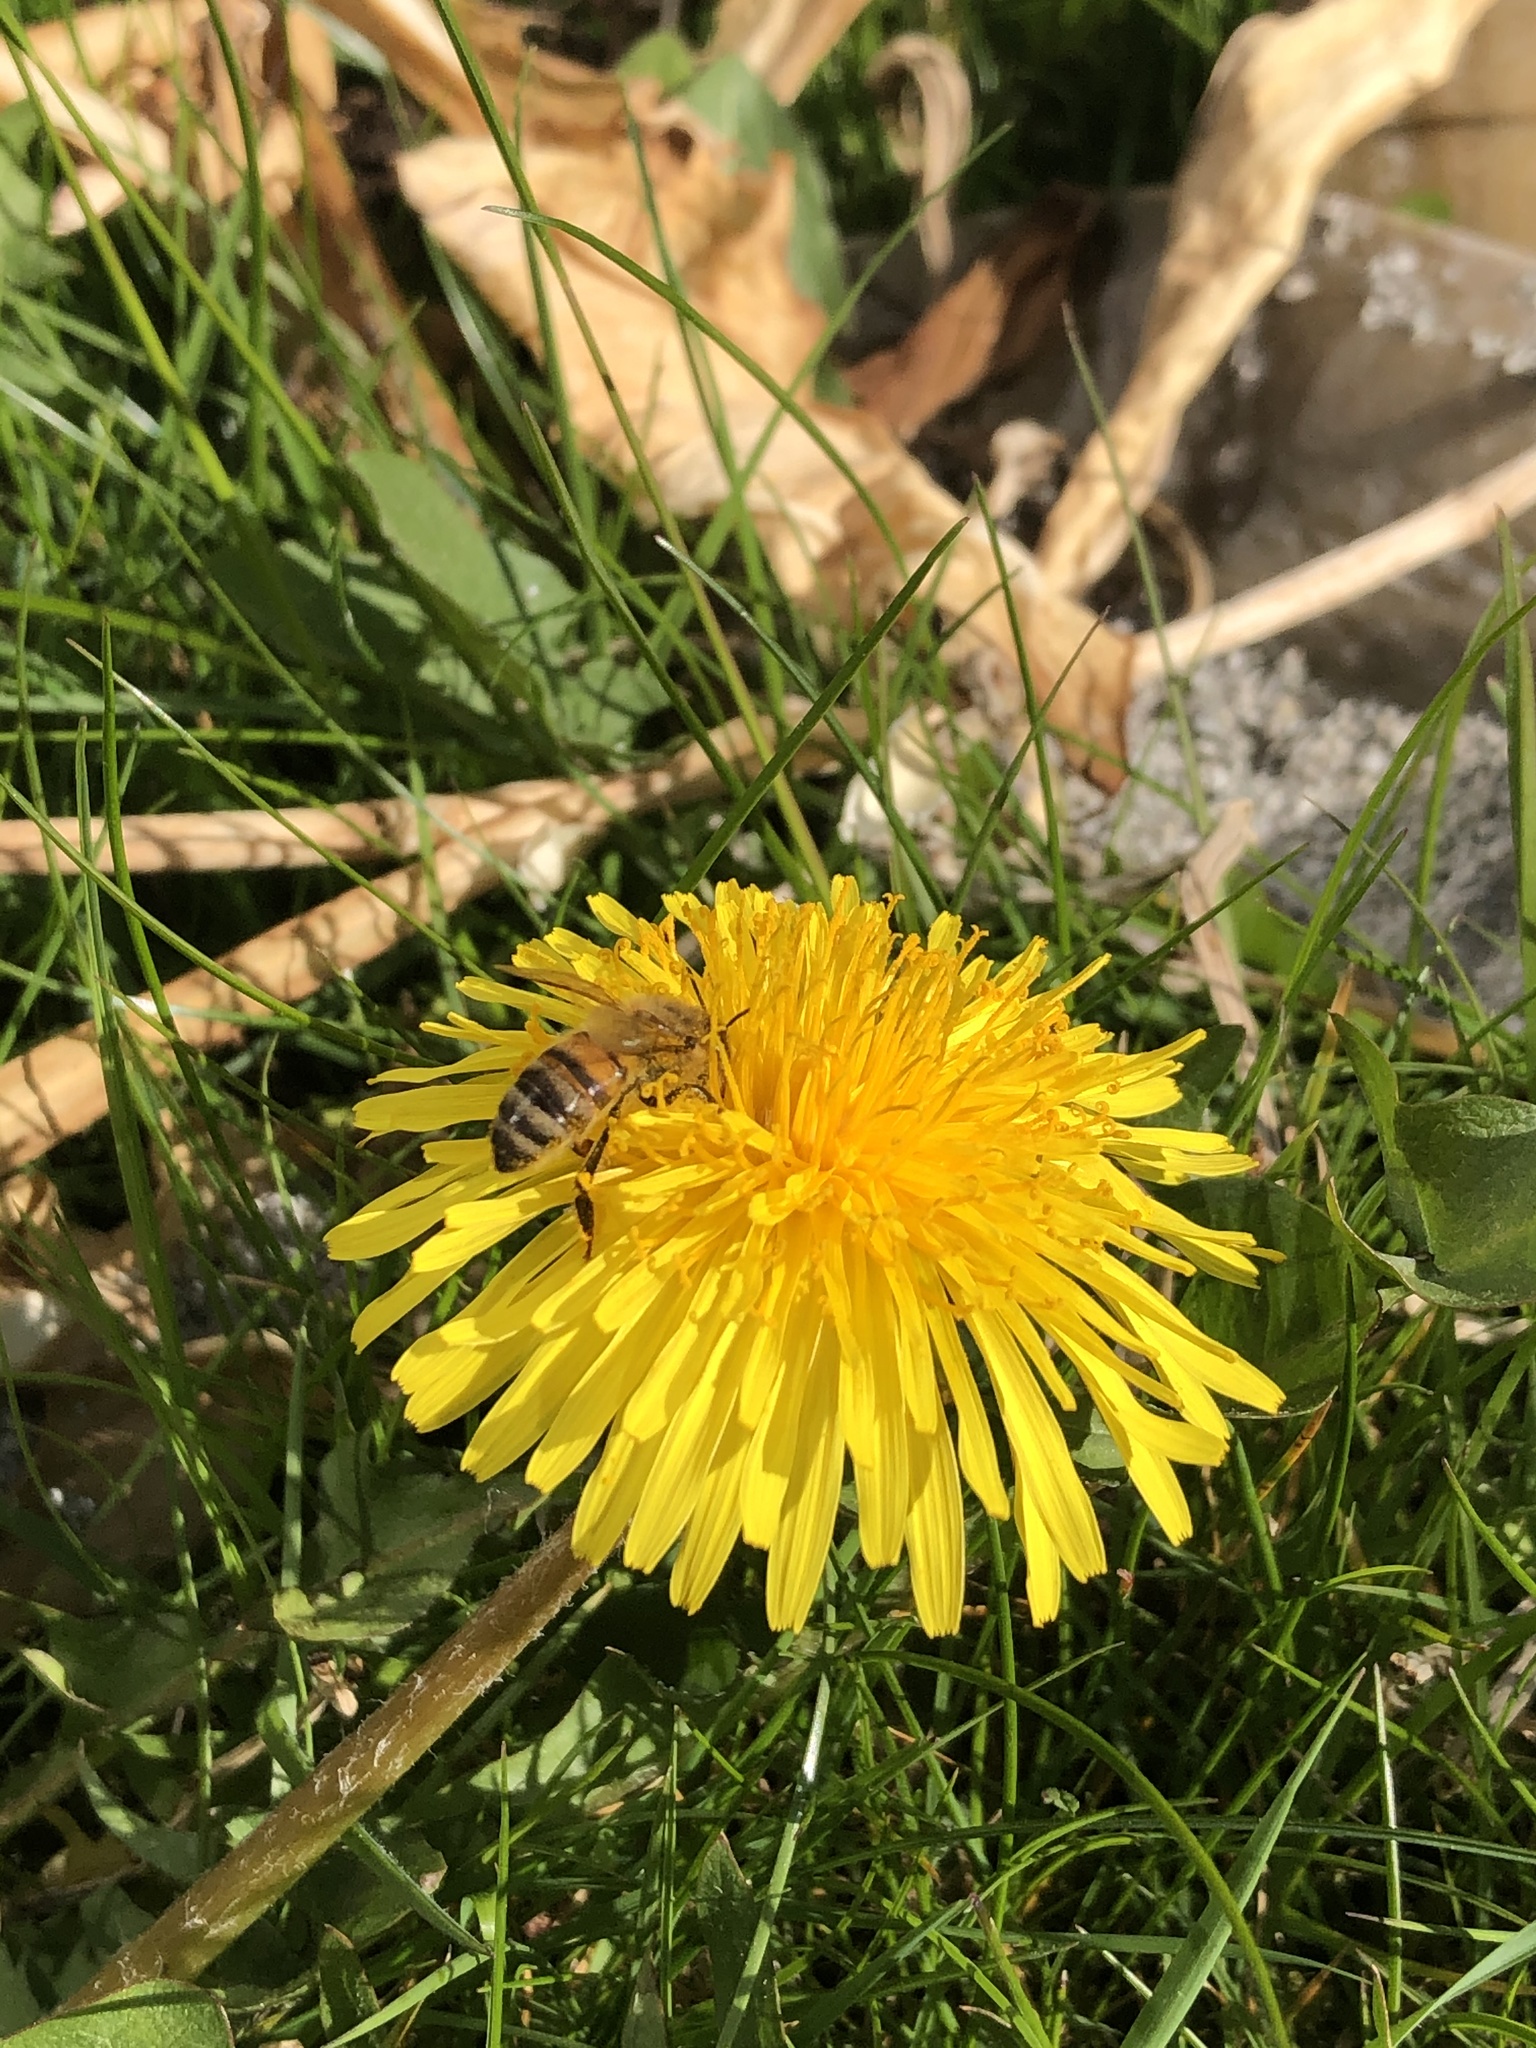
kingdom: Animalia
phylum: Arthropoda
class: Insecta
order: Hymenoptera
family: Apidae
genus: Apis
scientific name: Apis mellifera
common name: Honey bee
